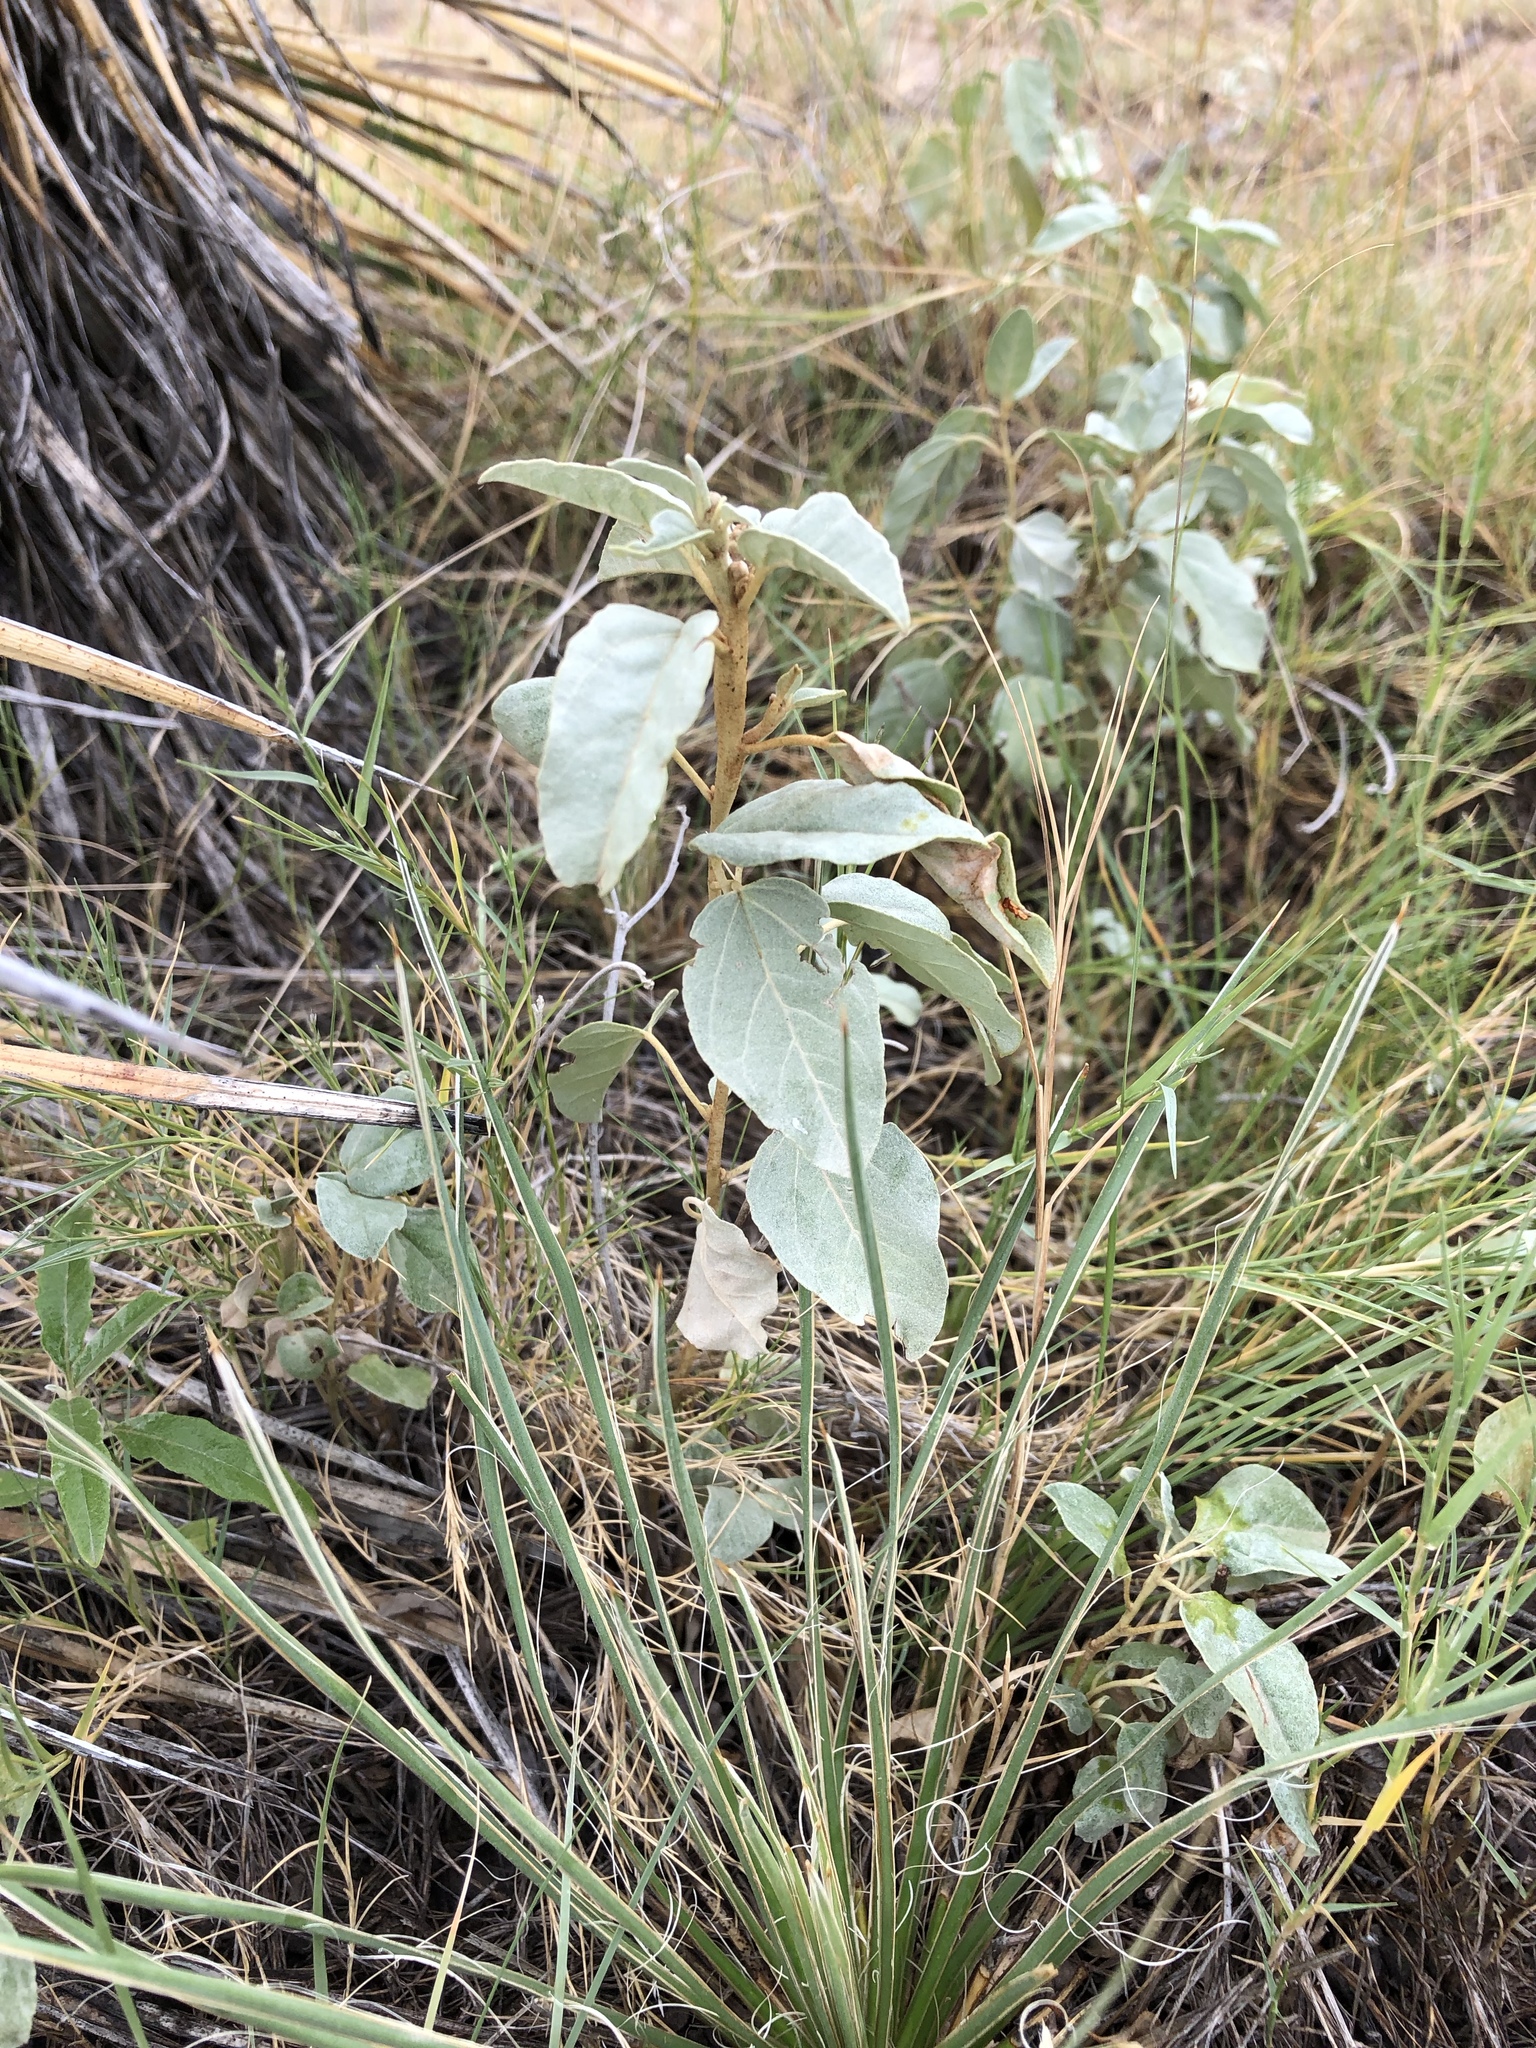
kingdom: Plantae
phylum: Tracheophyta
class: Magnoliopsida
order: Malpighiales
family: Euphorbiaceae
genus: Croton
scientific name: Croton pottsii
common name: Leatherweed
